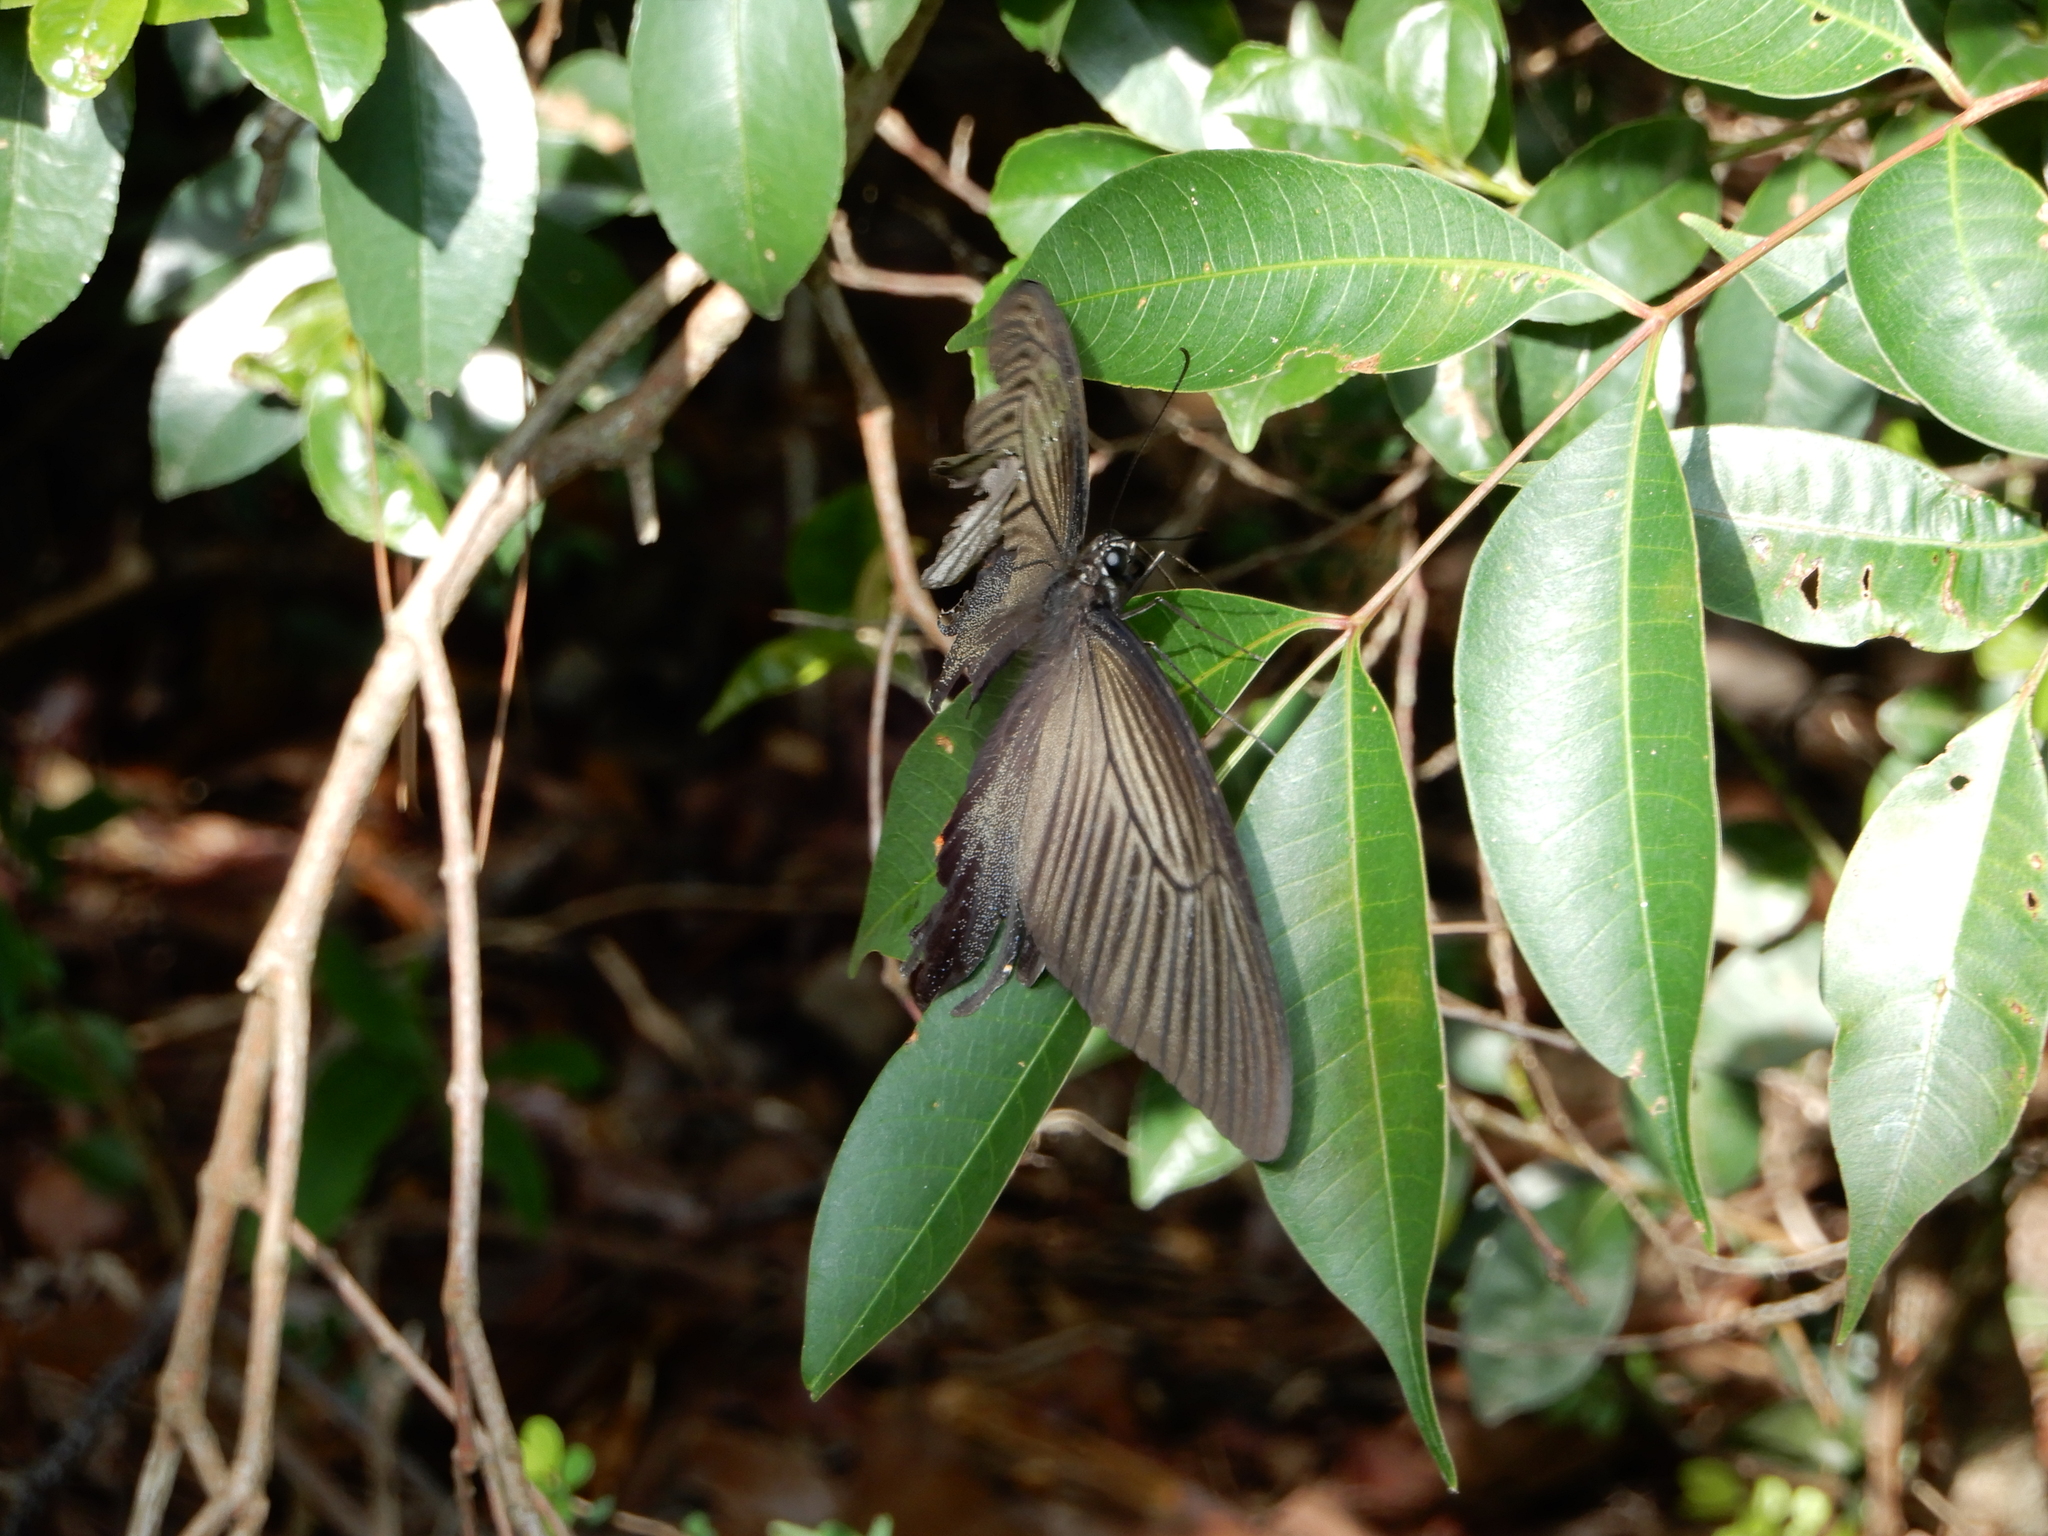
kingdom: Animalia
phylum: Arthropoda
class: Insecta
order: Lepidoptera
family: Papilionidae
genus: Papilio
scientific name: Papilio protenor
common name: Spangle
